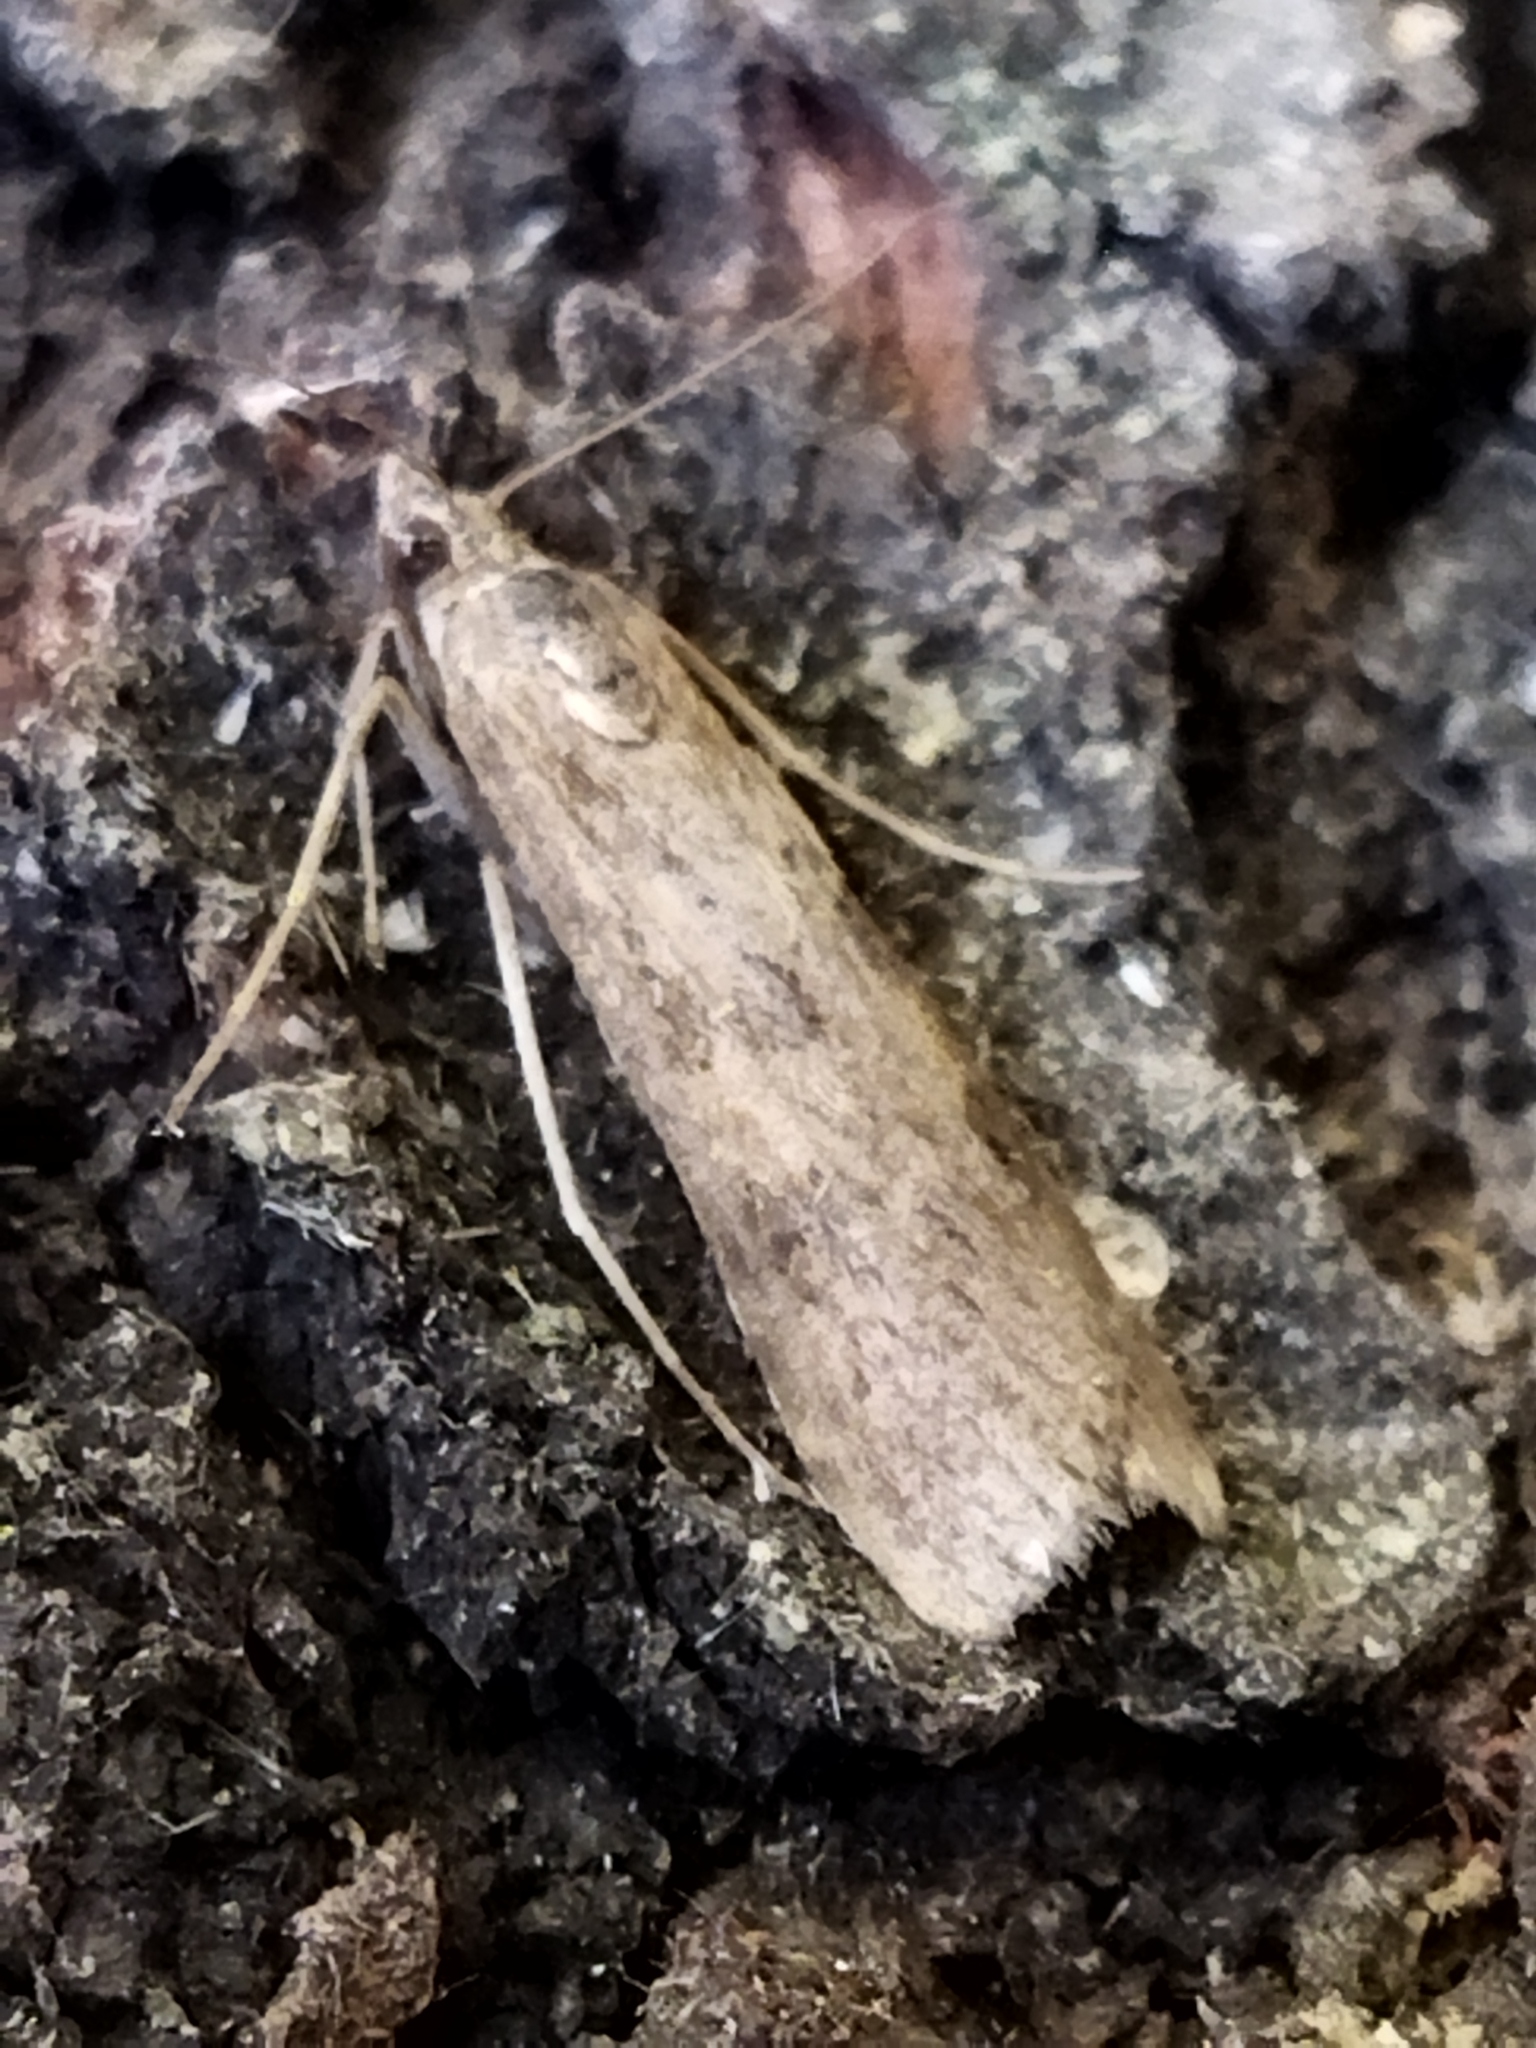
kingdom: Animalia
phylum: Arthropoda
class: Insecta
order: Lepidoptera
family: Crambidae
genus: Nomophila
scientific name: Nomophila noctuella
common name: Rush veneer
